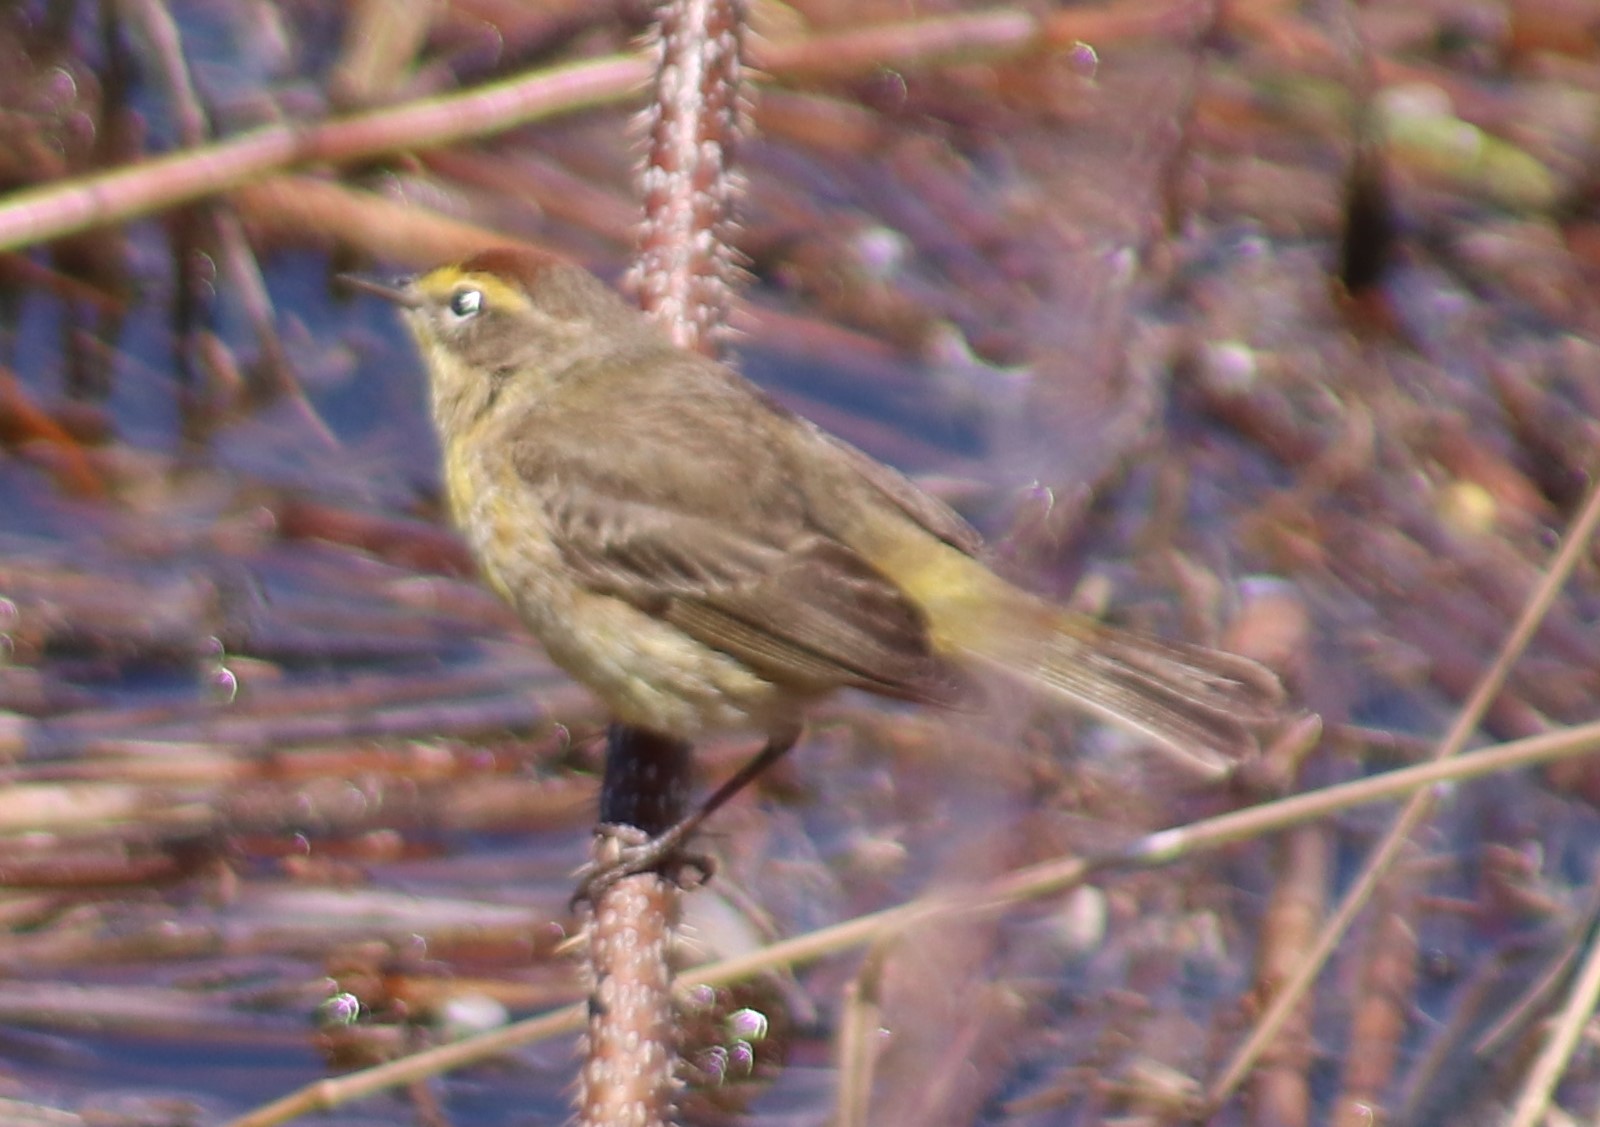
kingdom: Animalia
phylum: Chordata
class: Aves
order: Passeriformes
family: Parulidae
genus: Setophaga
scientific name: Setophaga palmarum
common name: Palm warbler
